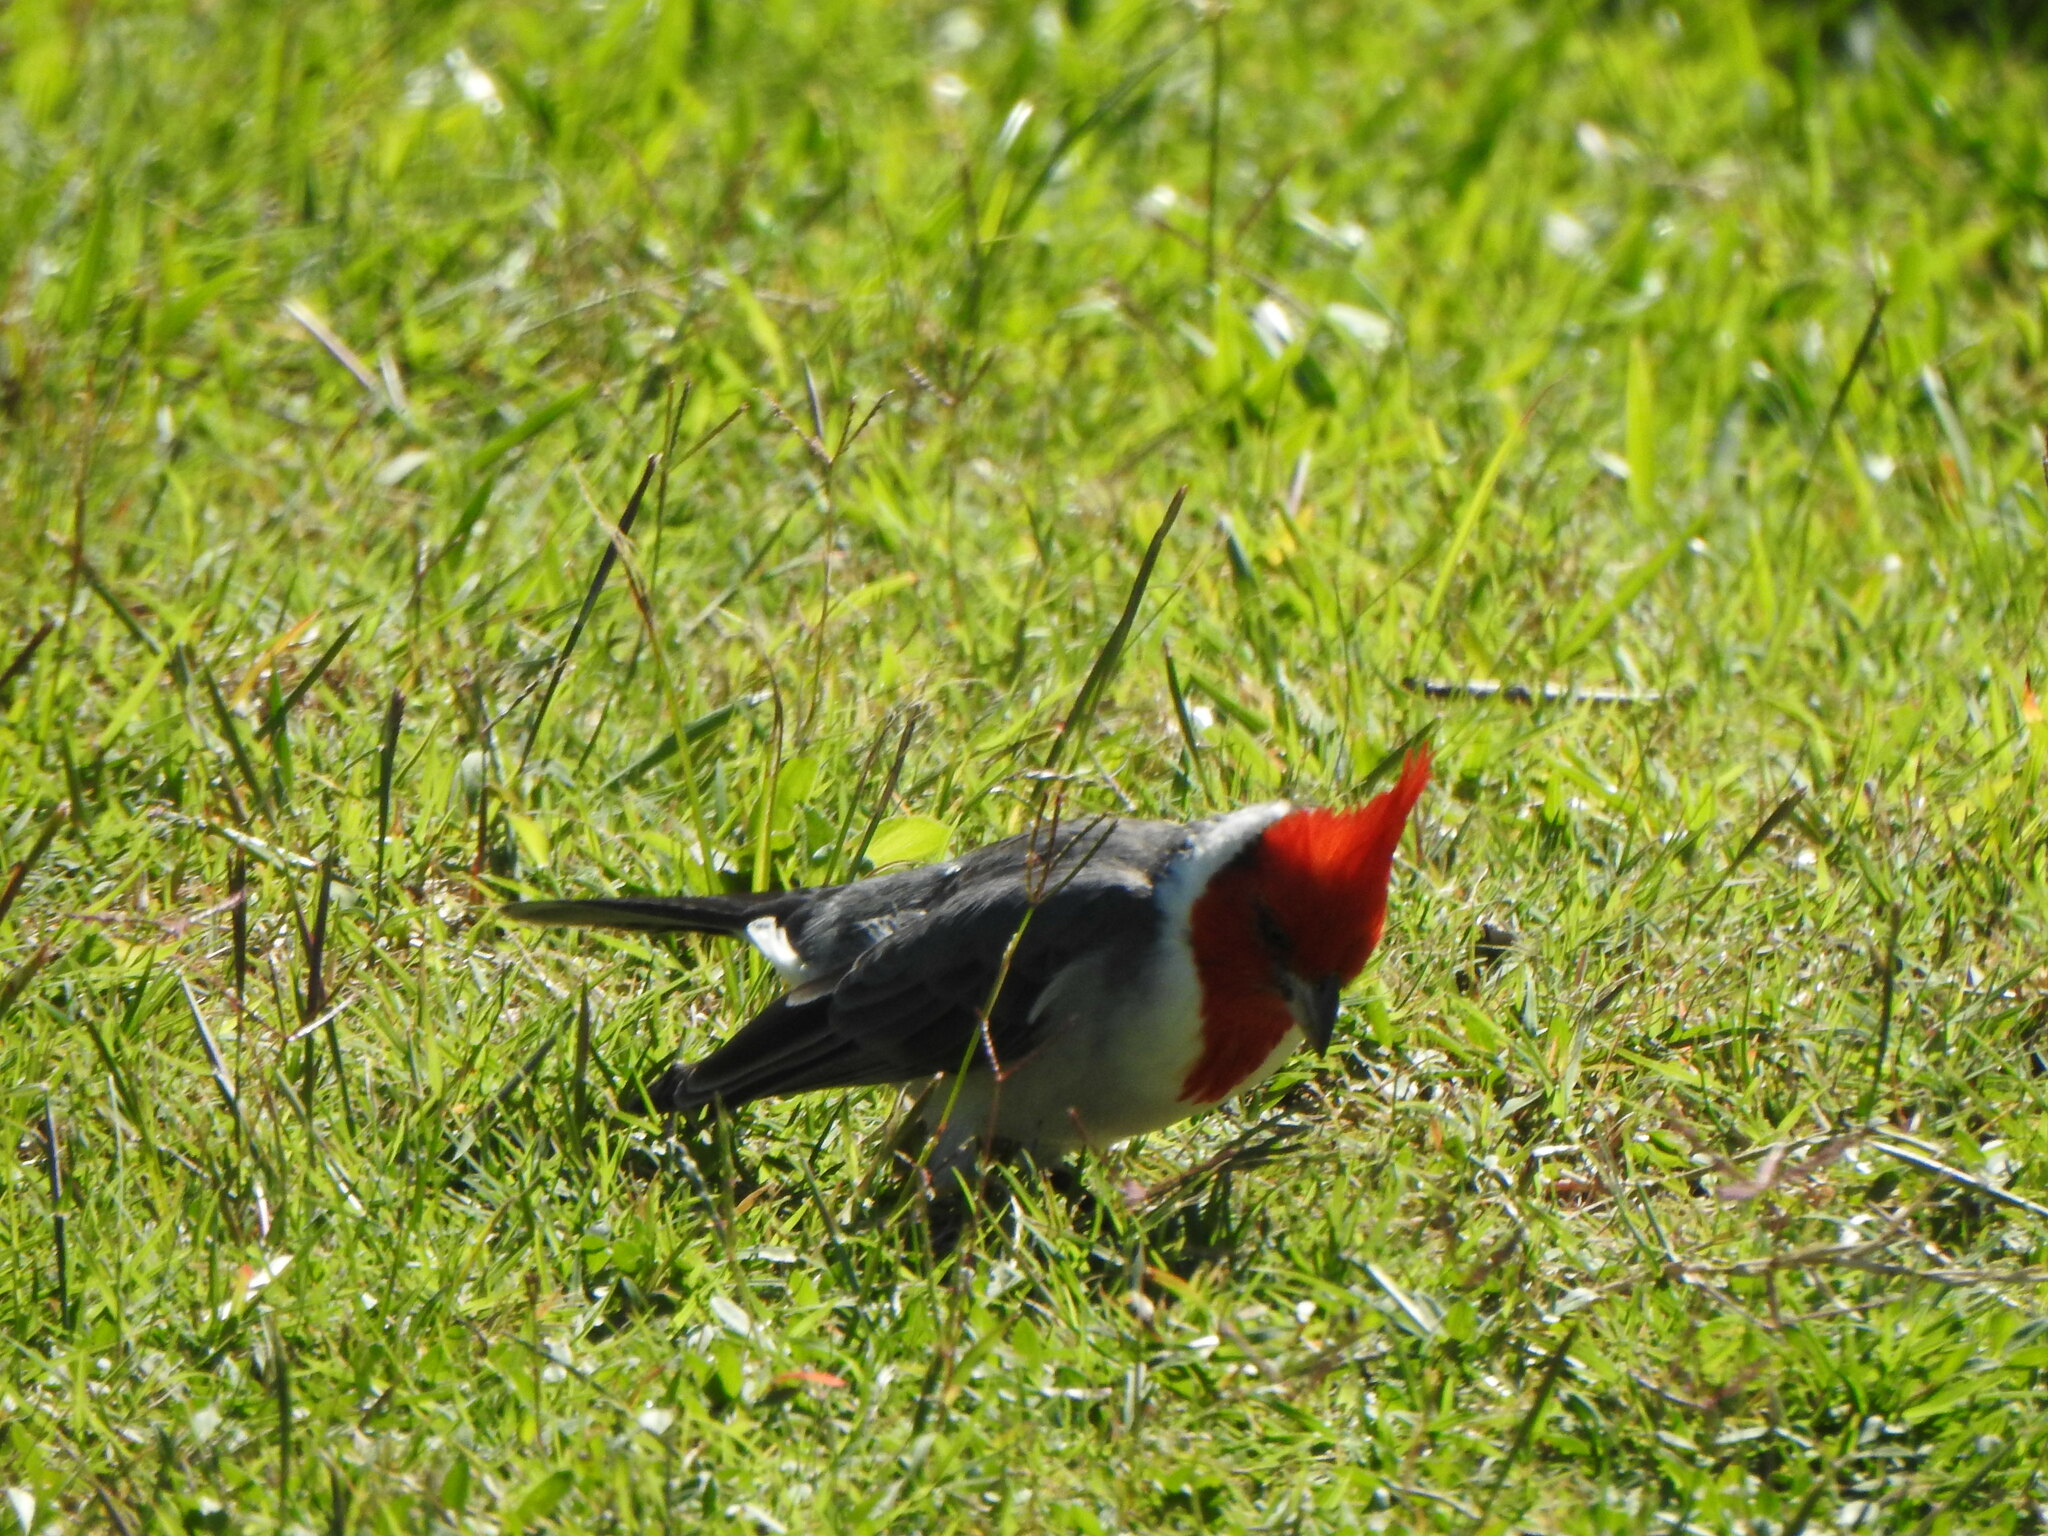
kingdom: Animalia
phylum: Chordata
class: Aves
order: Passeriformes
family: Thraupidae
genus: Paroaria
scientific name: Paroaria coronata
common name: Red-crested cardinal
